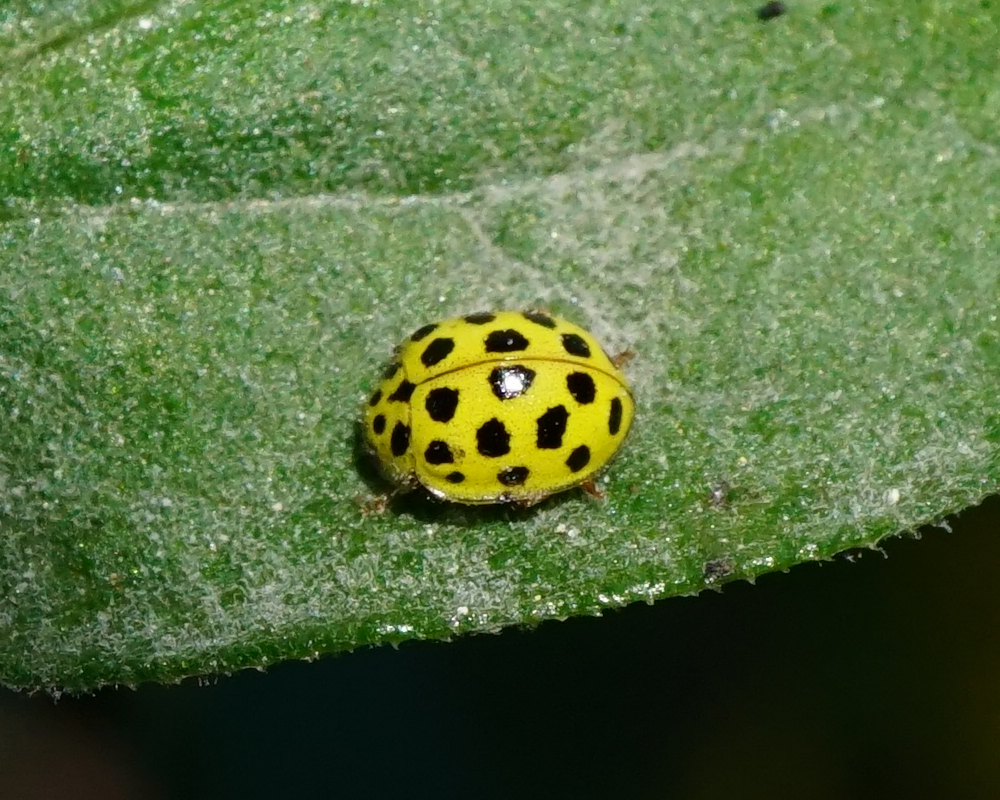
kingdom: Animalia
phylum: Arthropoda
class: Insecta
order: Coleoptera
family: Coccinellidae
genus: Psyllobora
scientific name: Psyllobora vigintiduopunctata
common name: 22-spot ladybird
